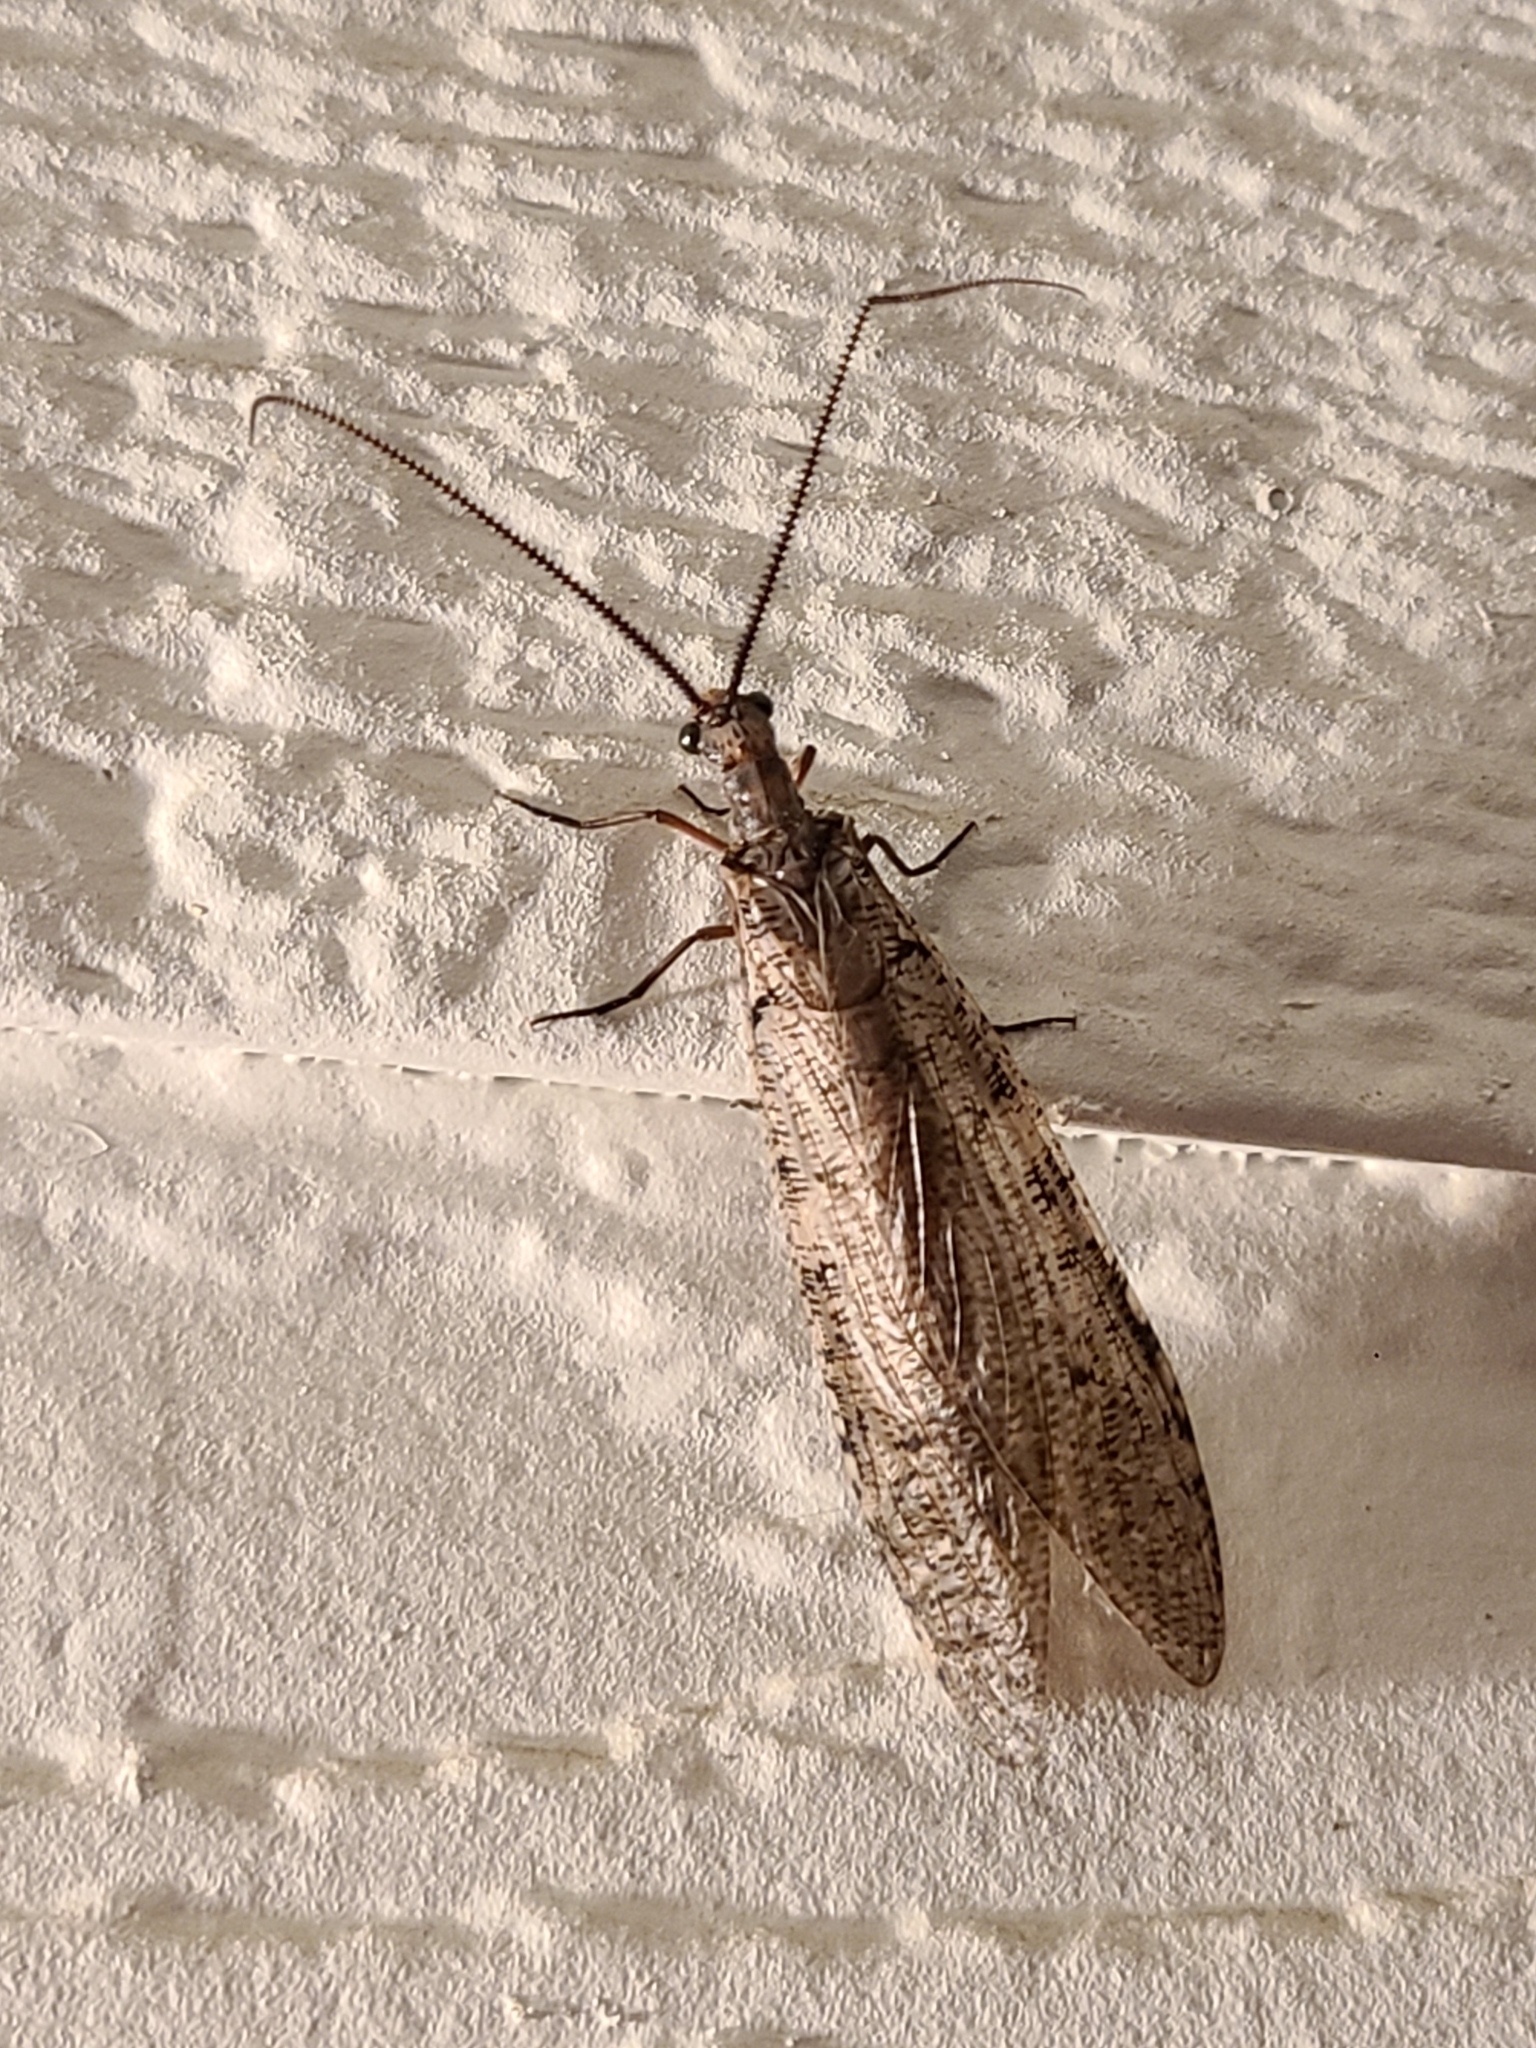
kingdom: Animalia
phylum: Arthropoda
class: Insecta
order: Megaloptera
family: Corydalidae
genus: Neohermes
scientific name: Neohermes filicornis
